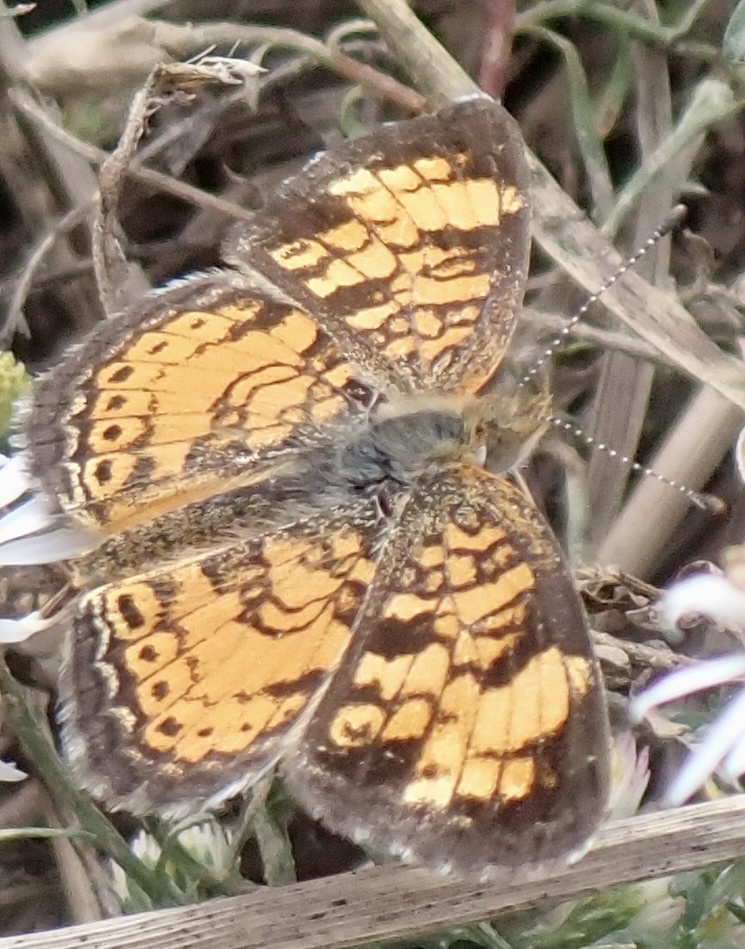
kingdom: Animalia
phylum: Arthropoda
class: Insecta
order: Lepidoptera
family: Nymphalidae
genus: Phyciodes
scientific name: Phyciodes tharos
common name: Pearl crescent
